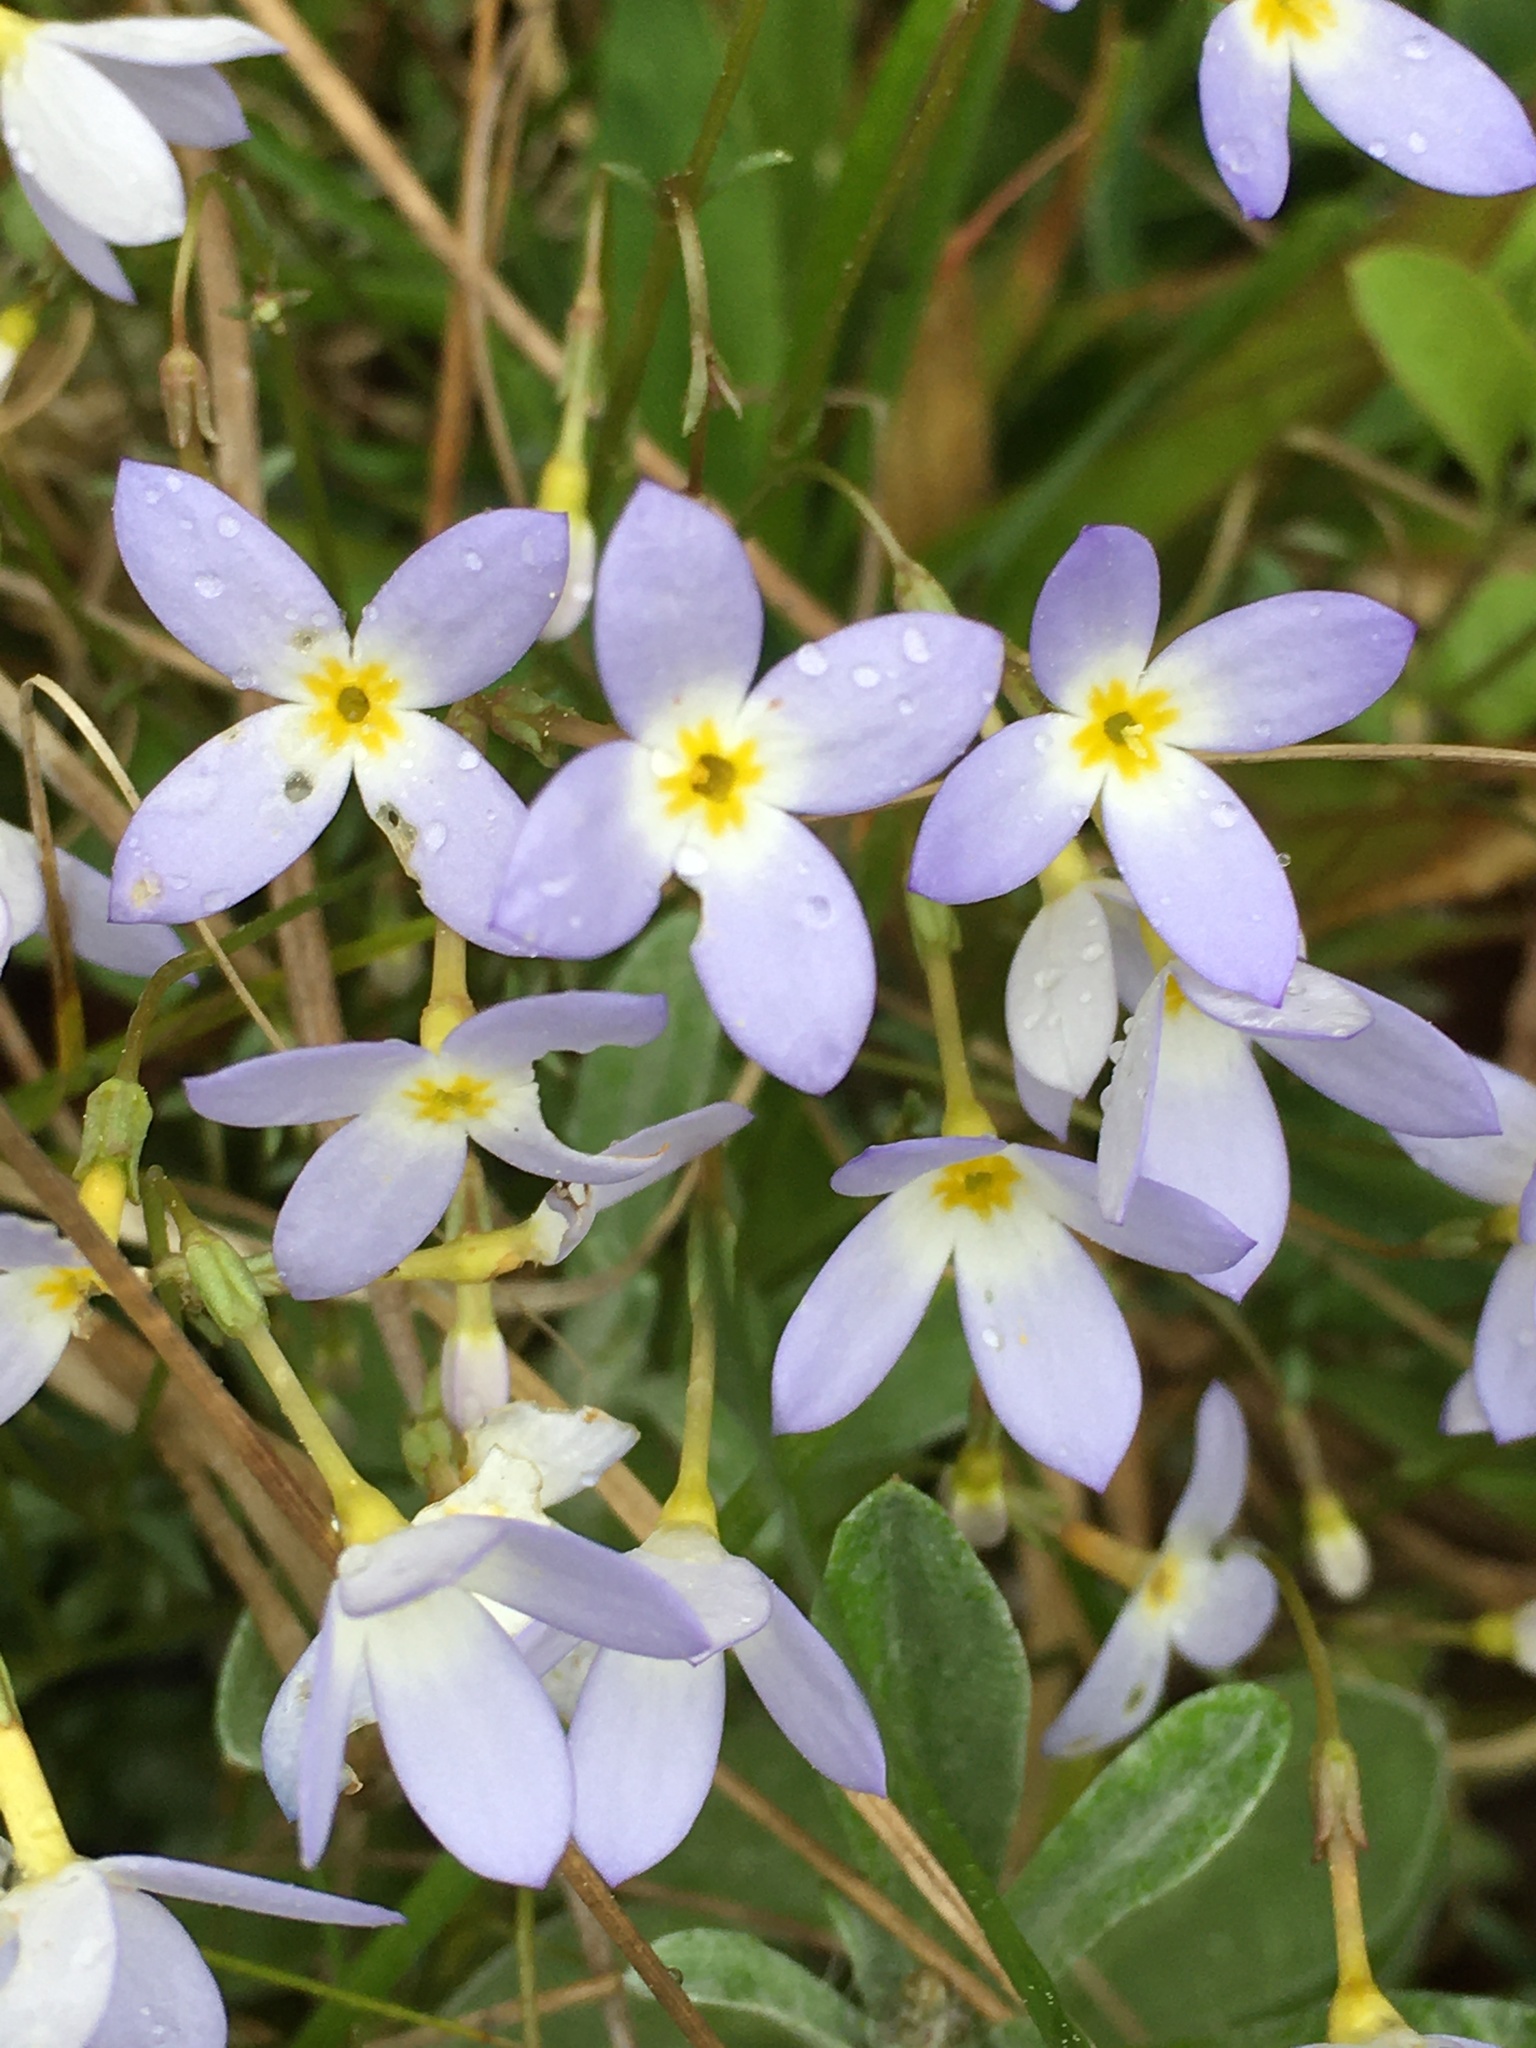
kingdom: Plantae
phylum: Tracheophyta
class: Magnoliopsida
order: Gentianales
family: Rubiaceae
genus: Houstonia
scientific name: Houstonia caerulea
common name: Bluets
